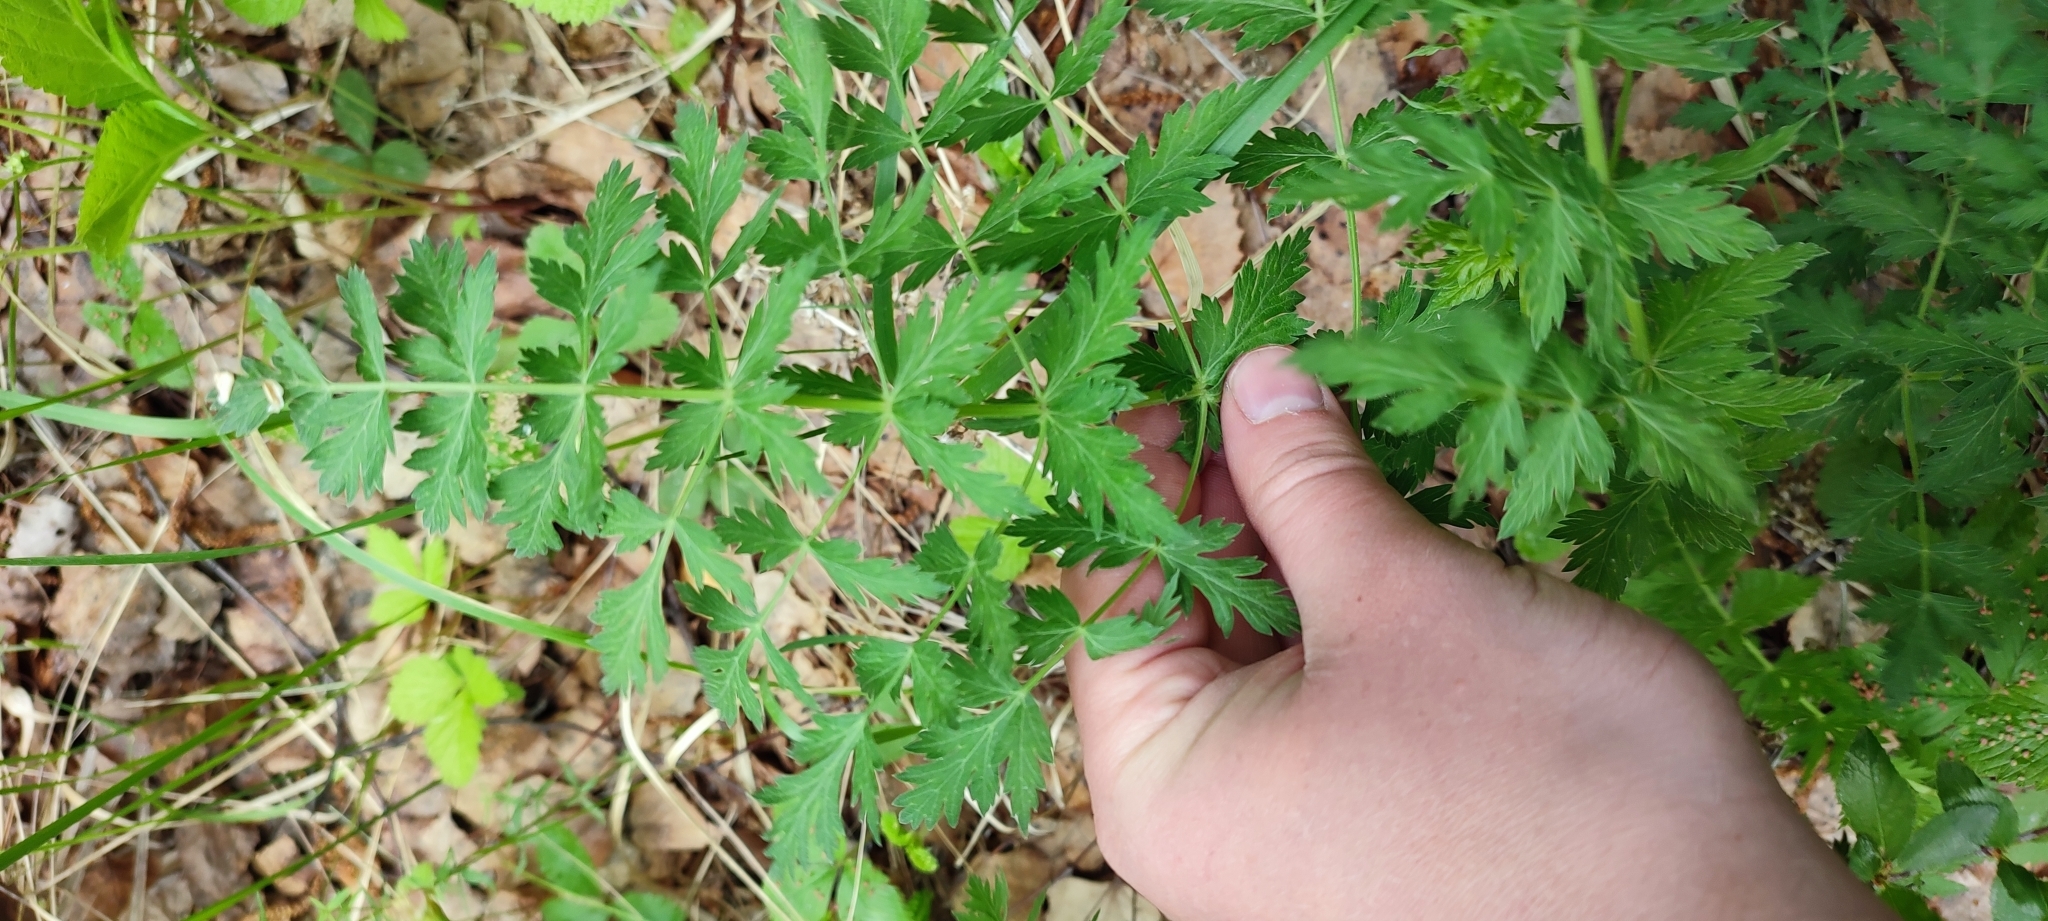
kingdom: Plantae
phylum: Tracheophyta
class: Magnoliopsida
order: Apiales
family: Apiaceae
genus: Seseli
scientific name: Seseli libanotis
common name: Mooncarrot
